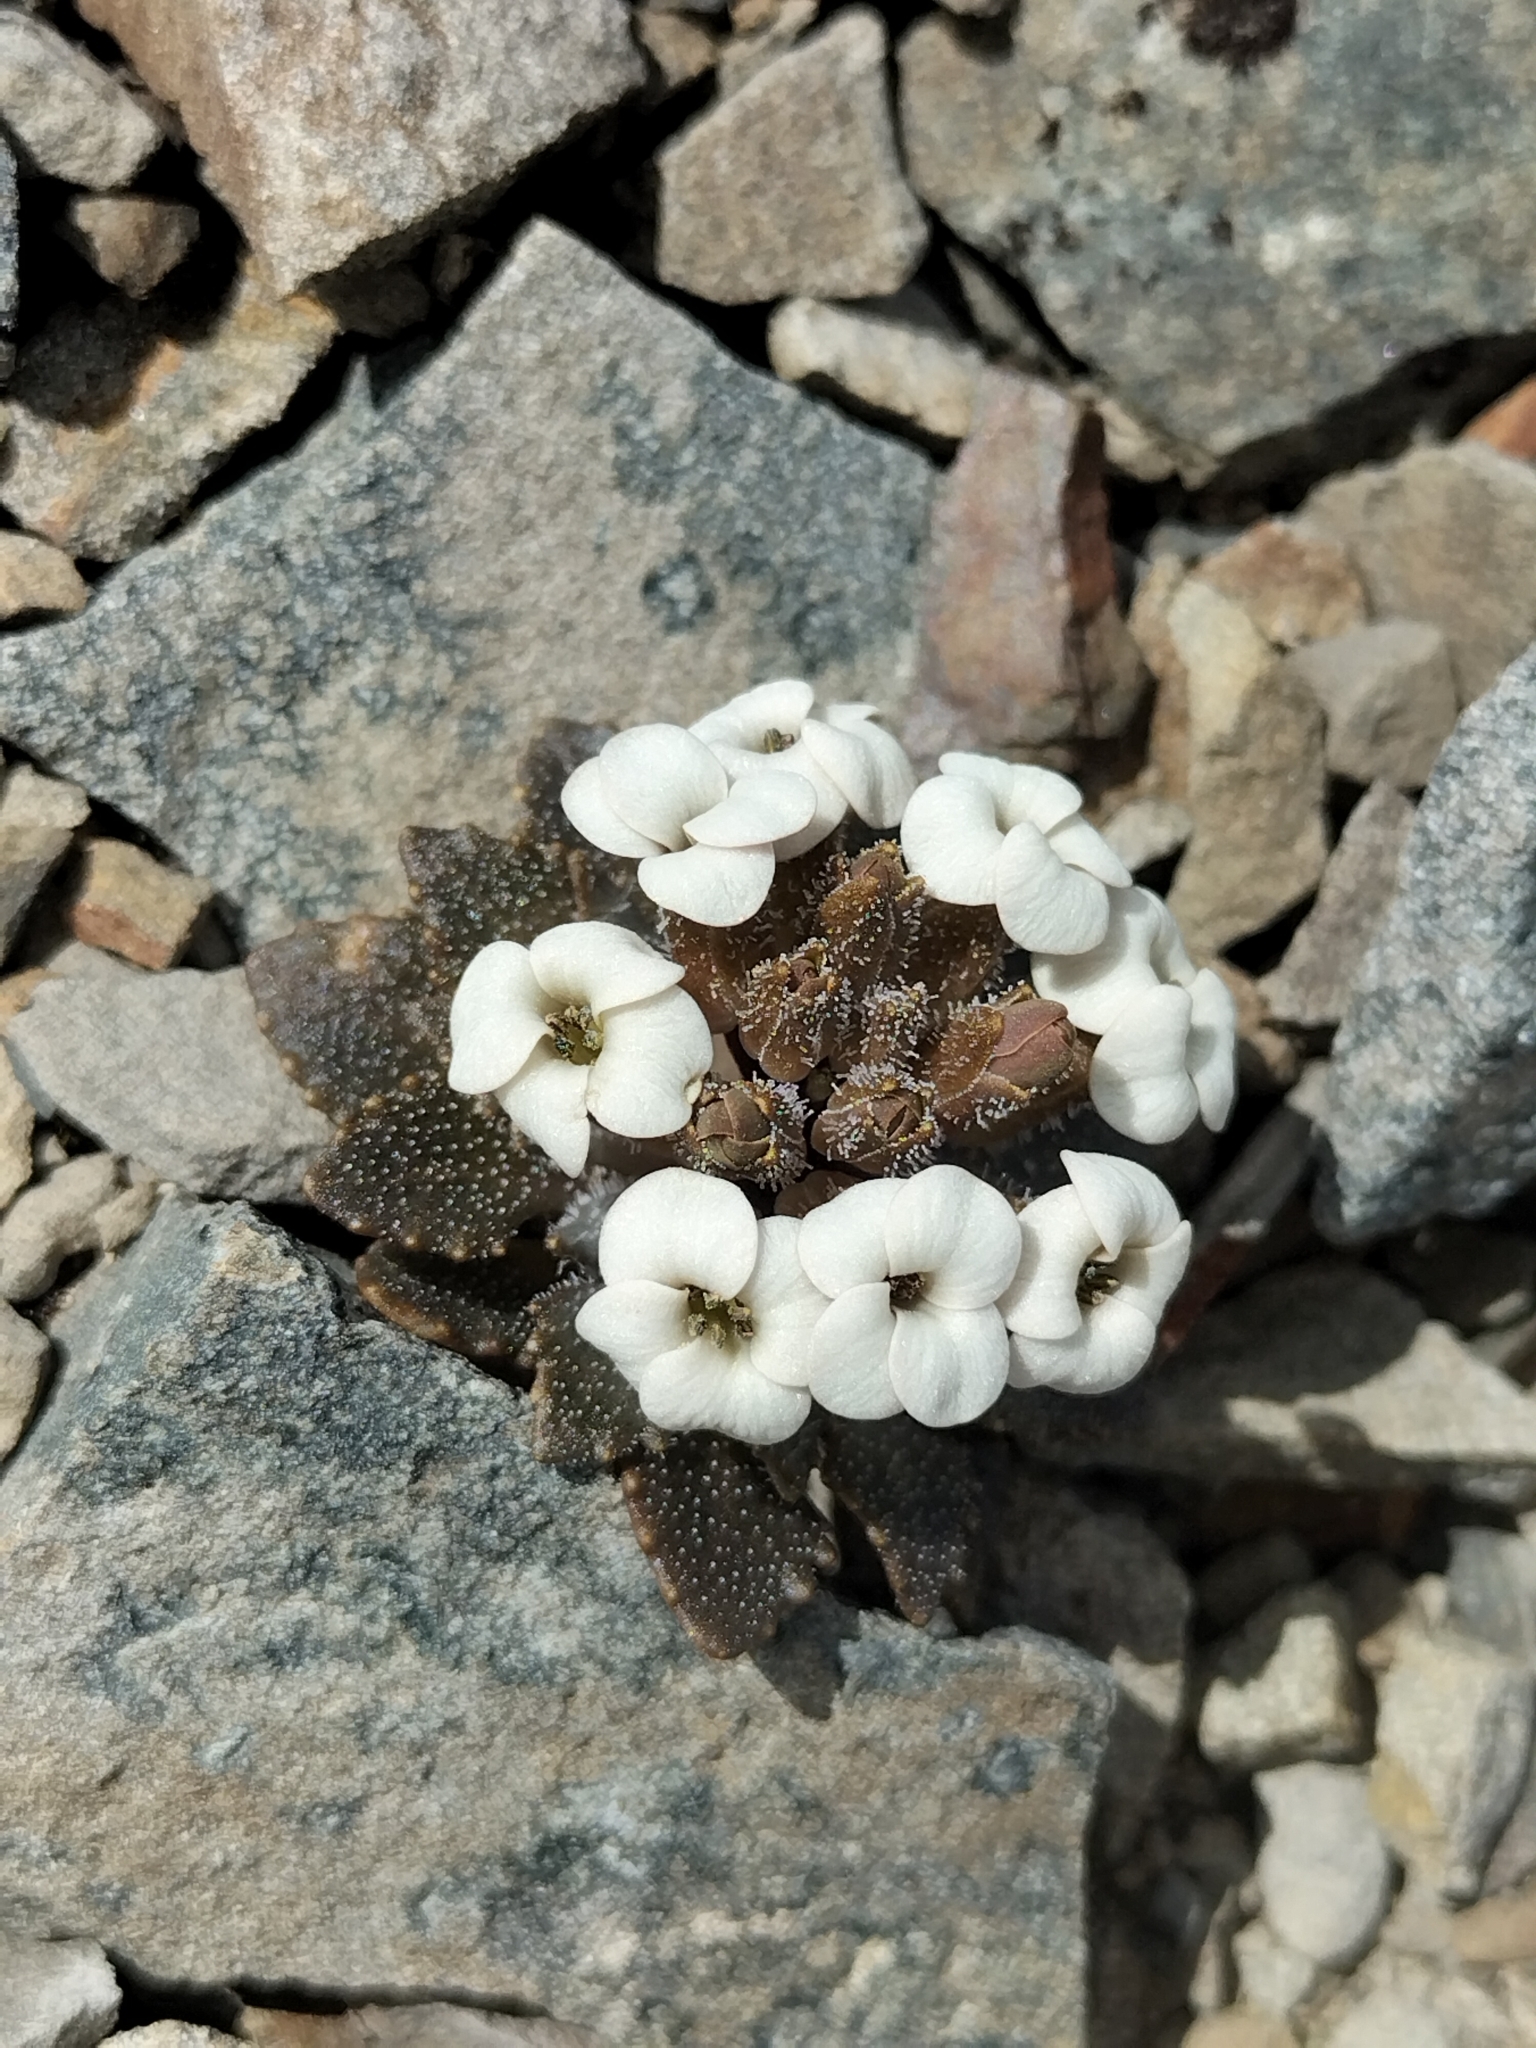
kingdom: Plantae
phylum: Tracheophyta
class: Magnoliopsida
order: Brassicales
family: Brassicaceae
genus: Notothlaspi
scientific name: Notothlaspi rosulatum
